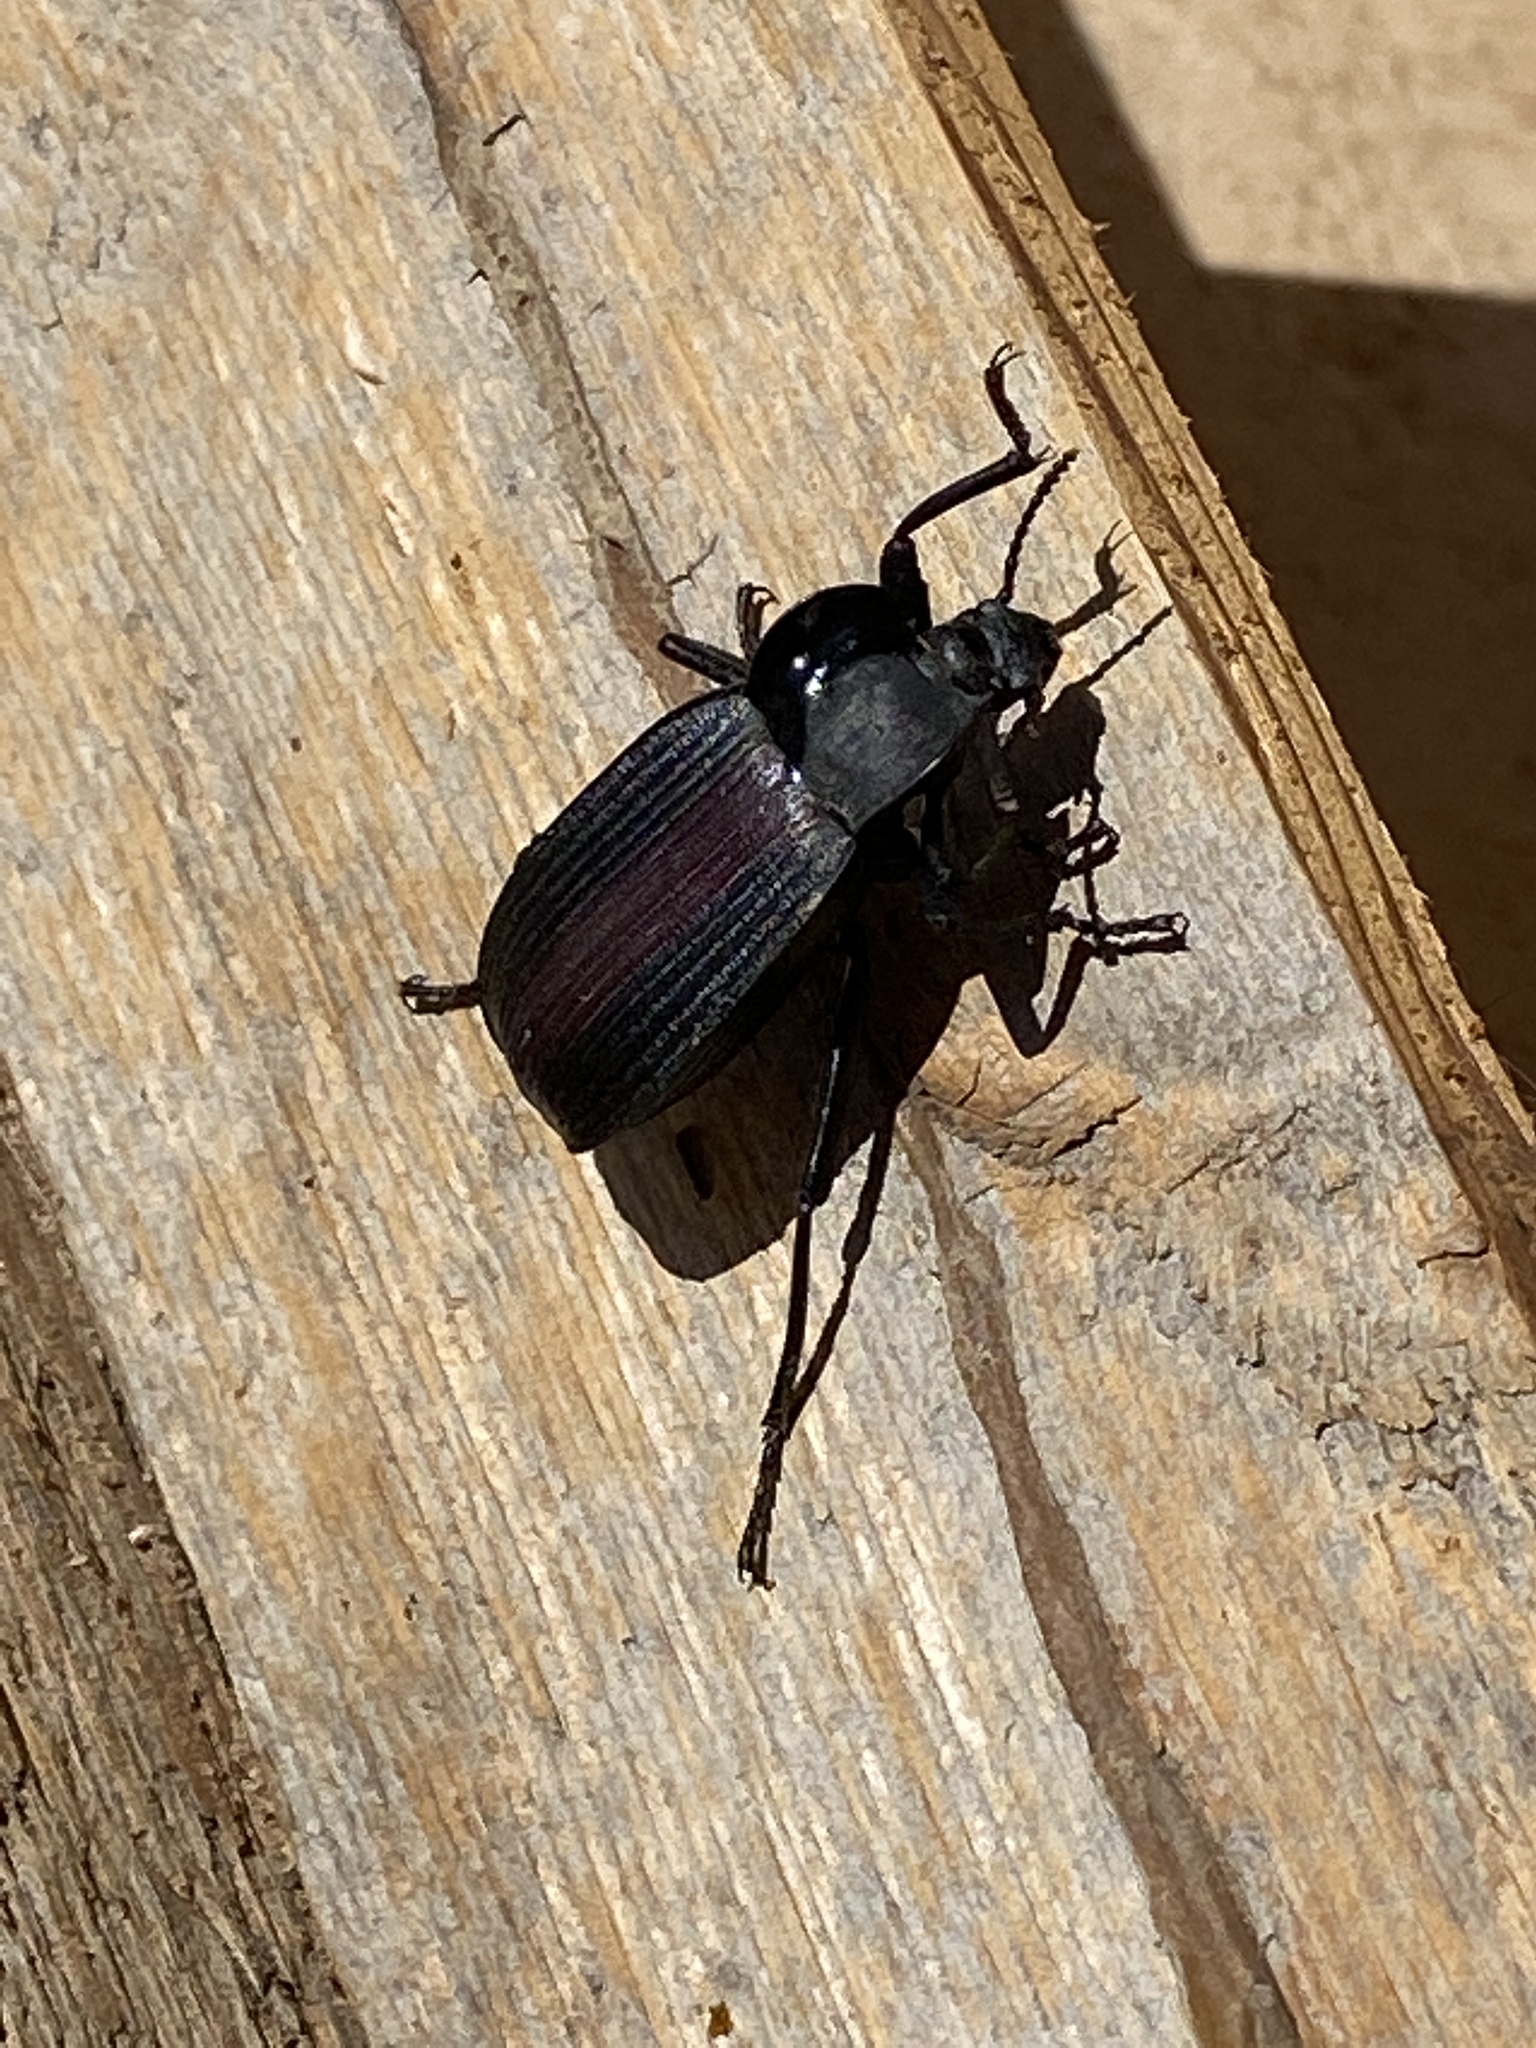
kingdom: Animalia
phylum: Arthropoda
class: Insecta
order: Coleoptera
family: Tenebrionidae
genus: Eleodes
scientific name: Eleodes suturalis
